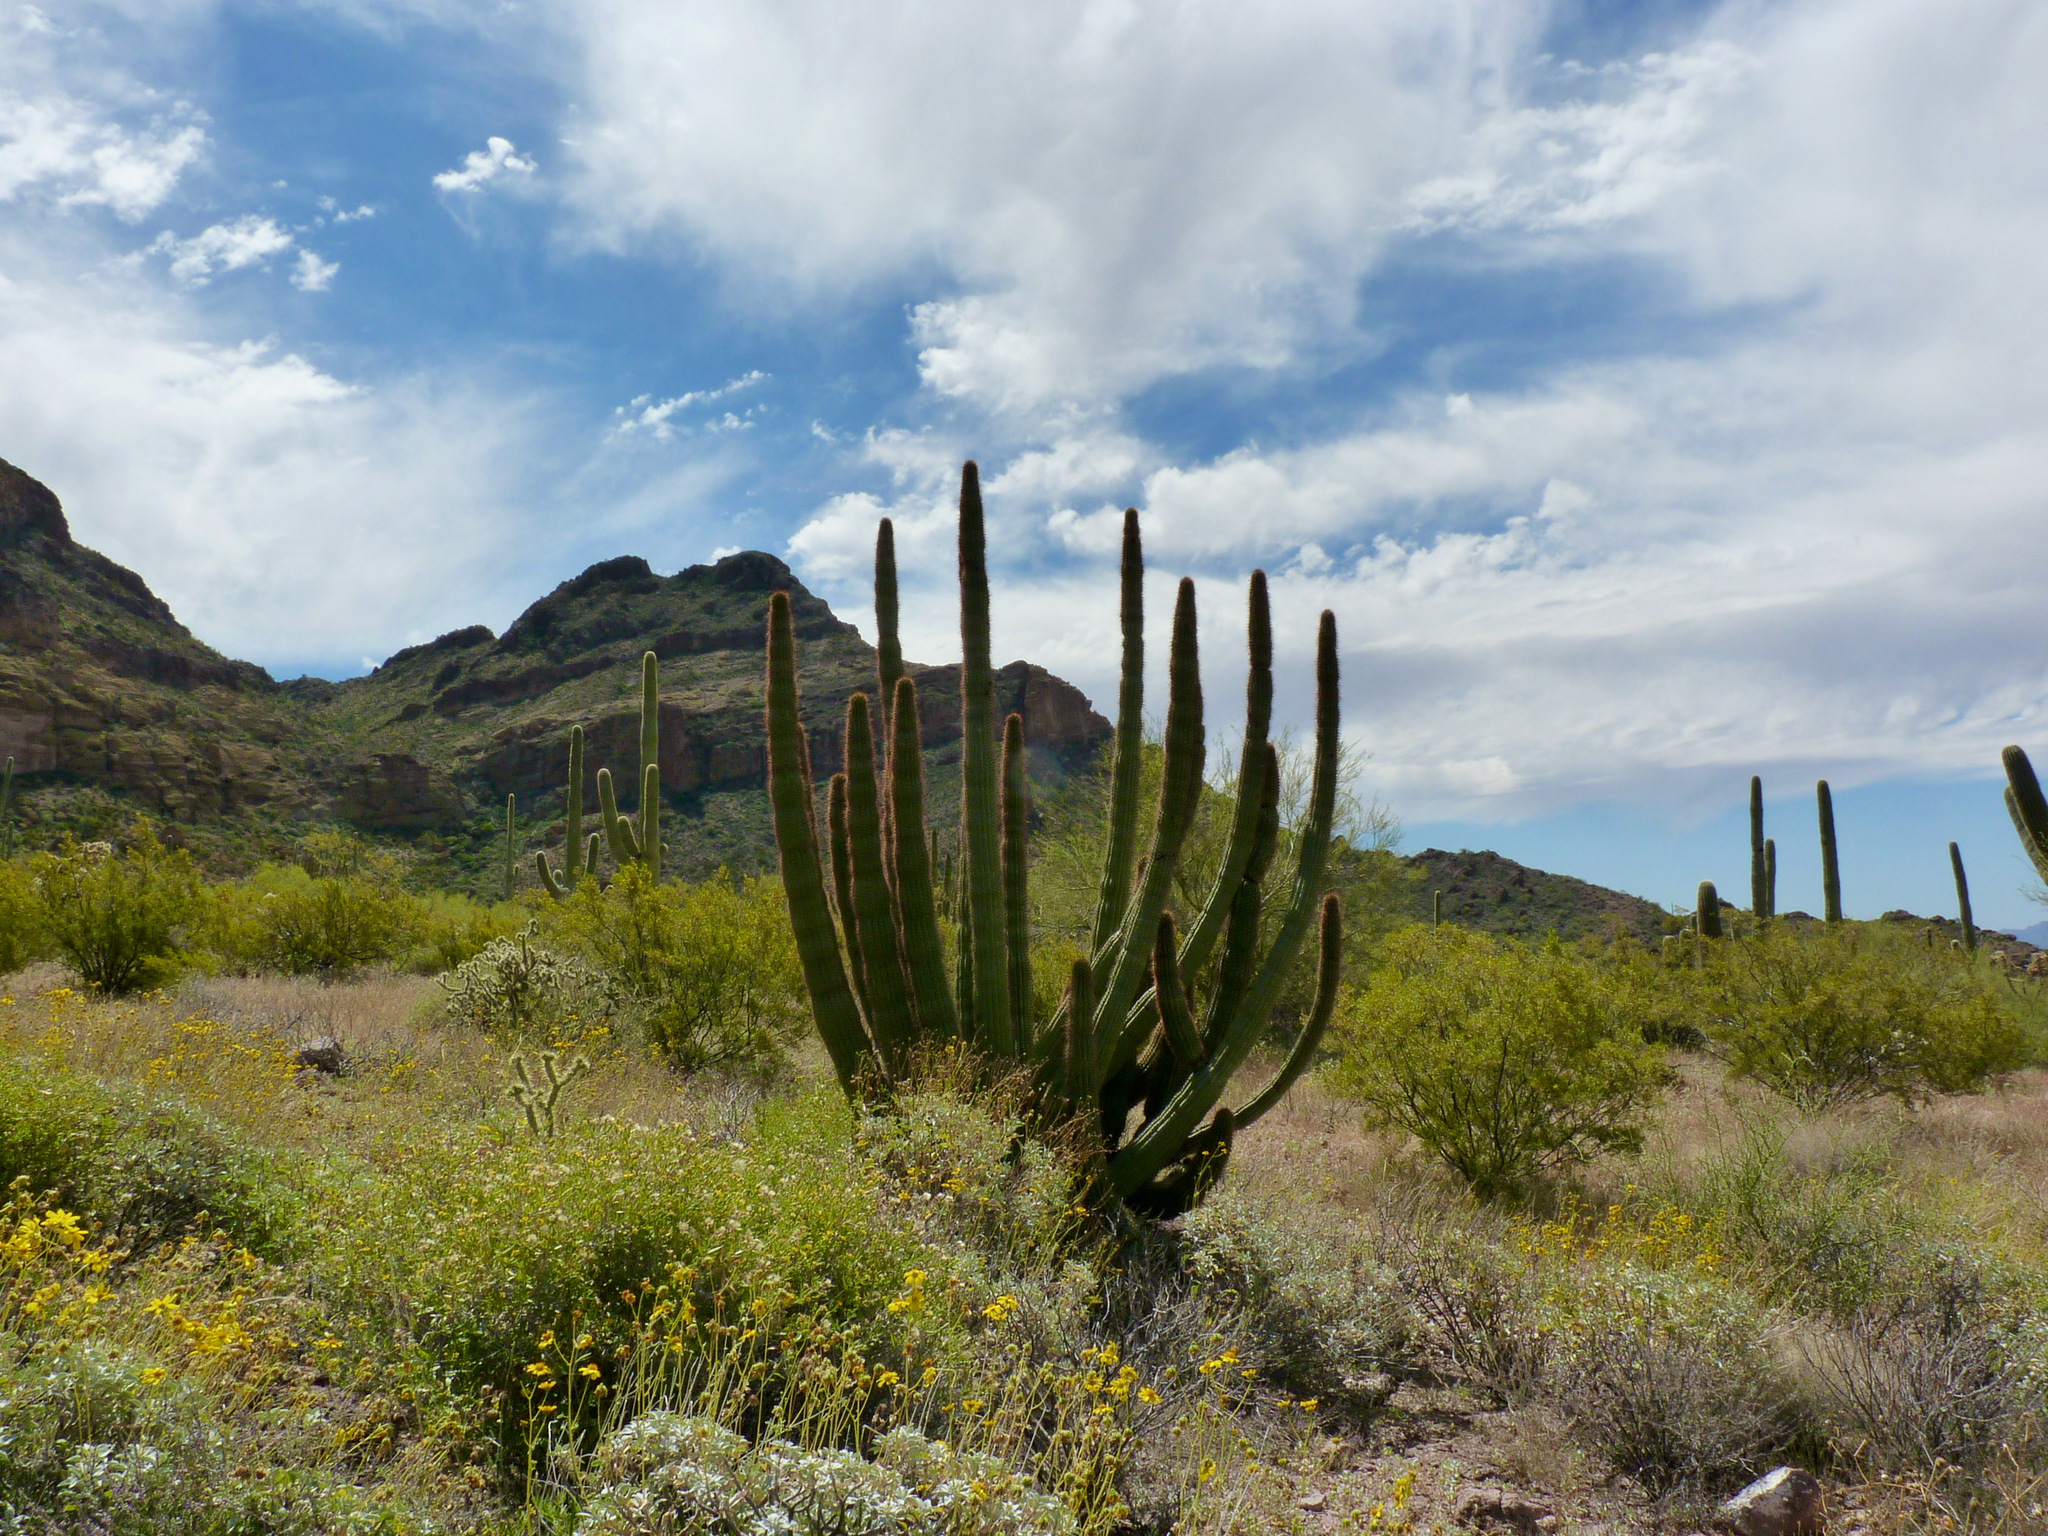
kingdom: Plantae
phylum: Tracheophyta
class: Magnoliopsida
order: Caryophyllales
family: Cactaceae
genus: Stenocereus
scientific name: Stenocereus thurberi
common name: Organ pipe cactus
